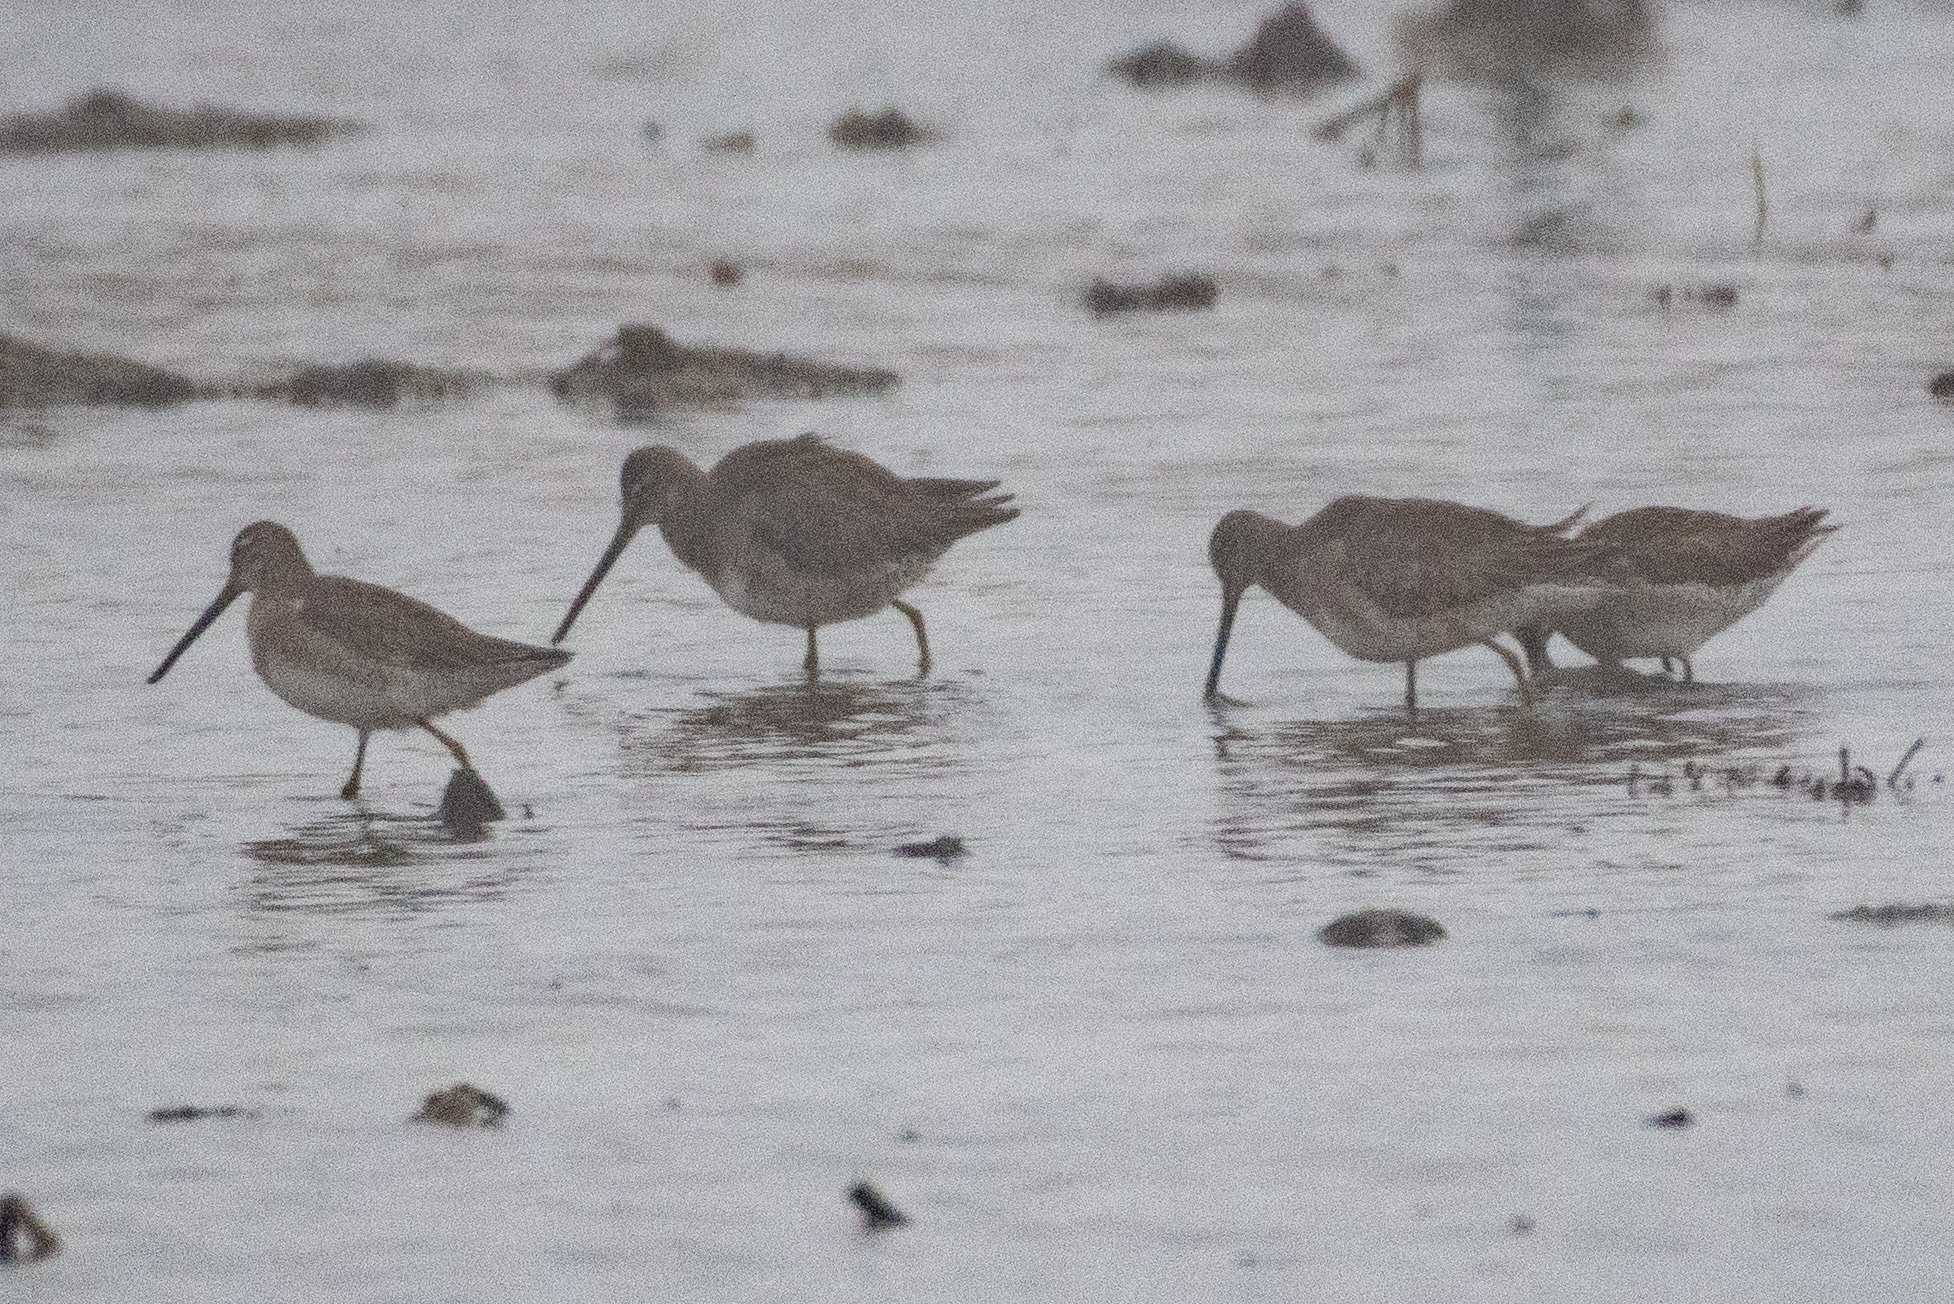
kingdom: Animalia
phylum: Chordata
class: Aves
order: Charadriiformes
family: Scolopacidae
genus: Limnodromus
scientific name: Limnodromus scolopaceus
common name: Long-billed dowitcher
